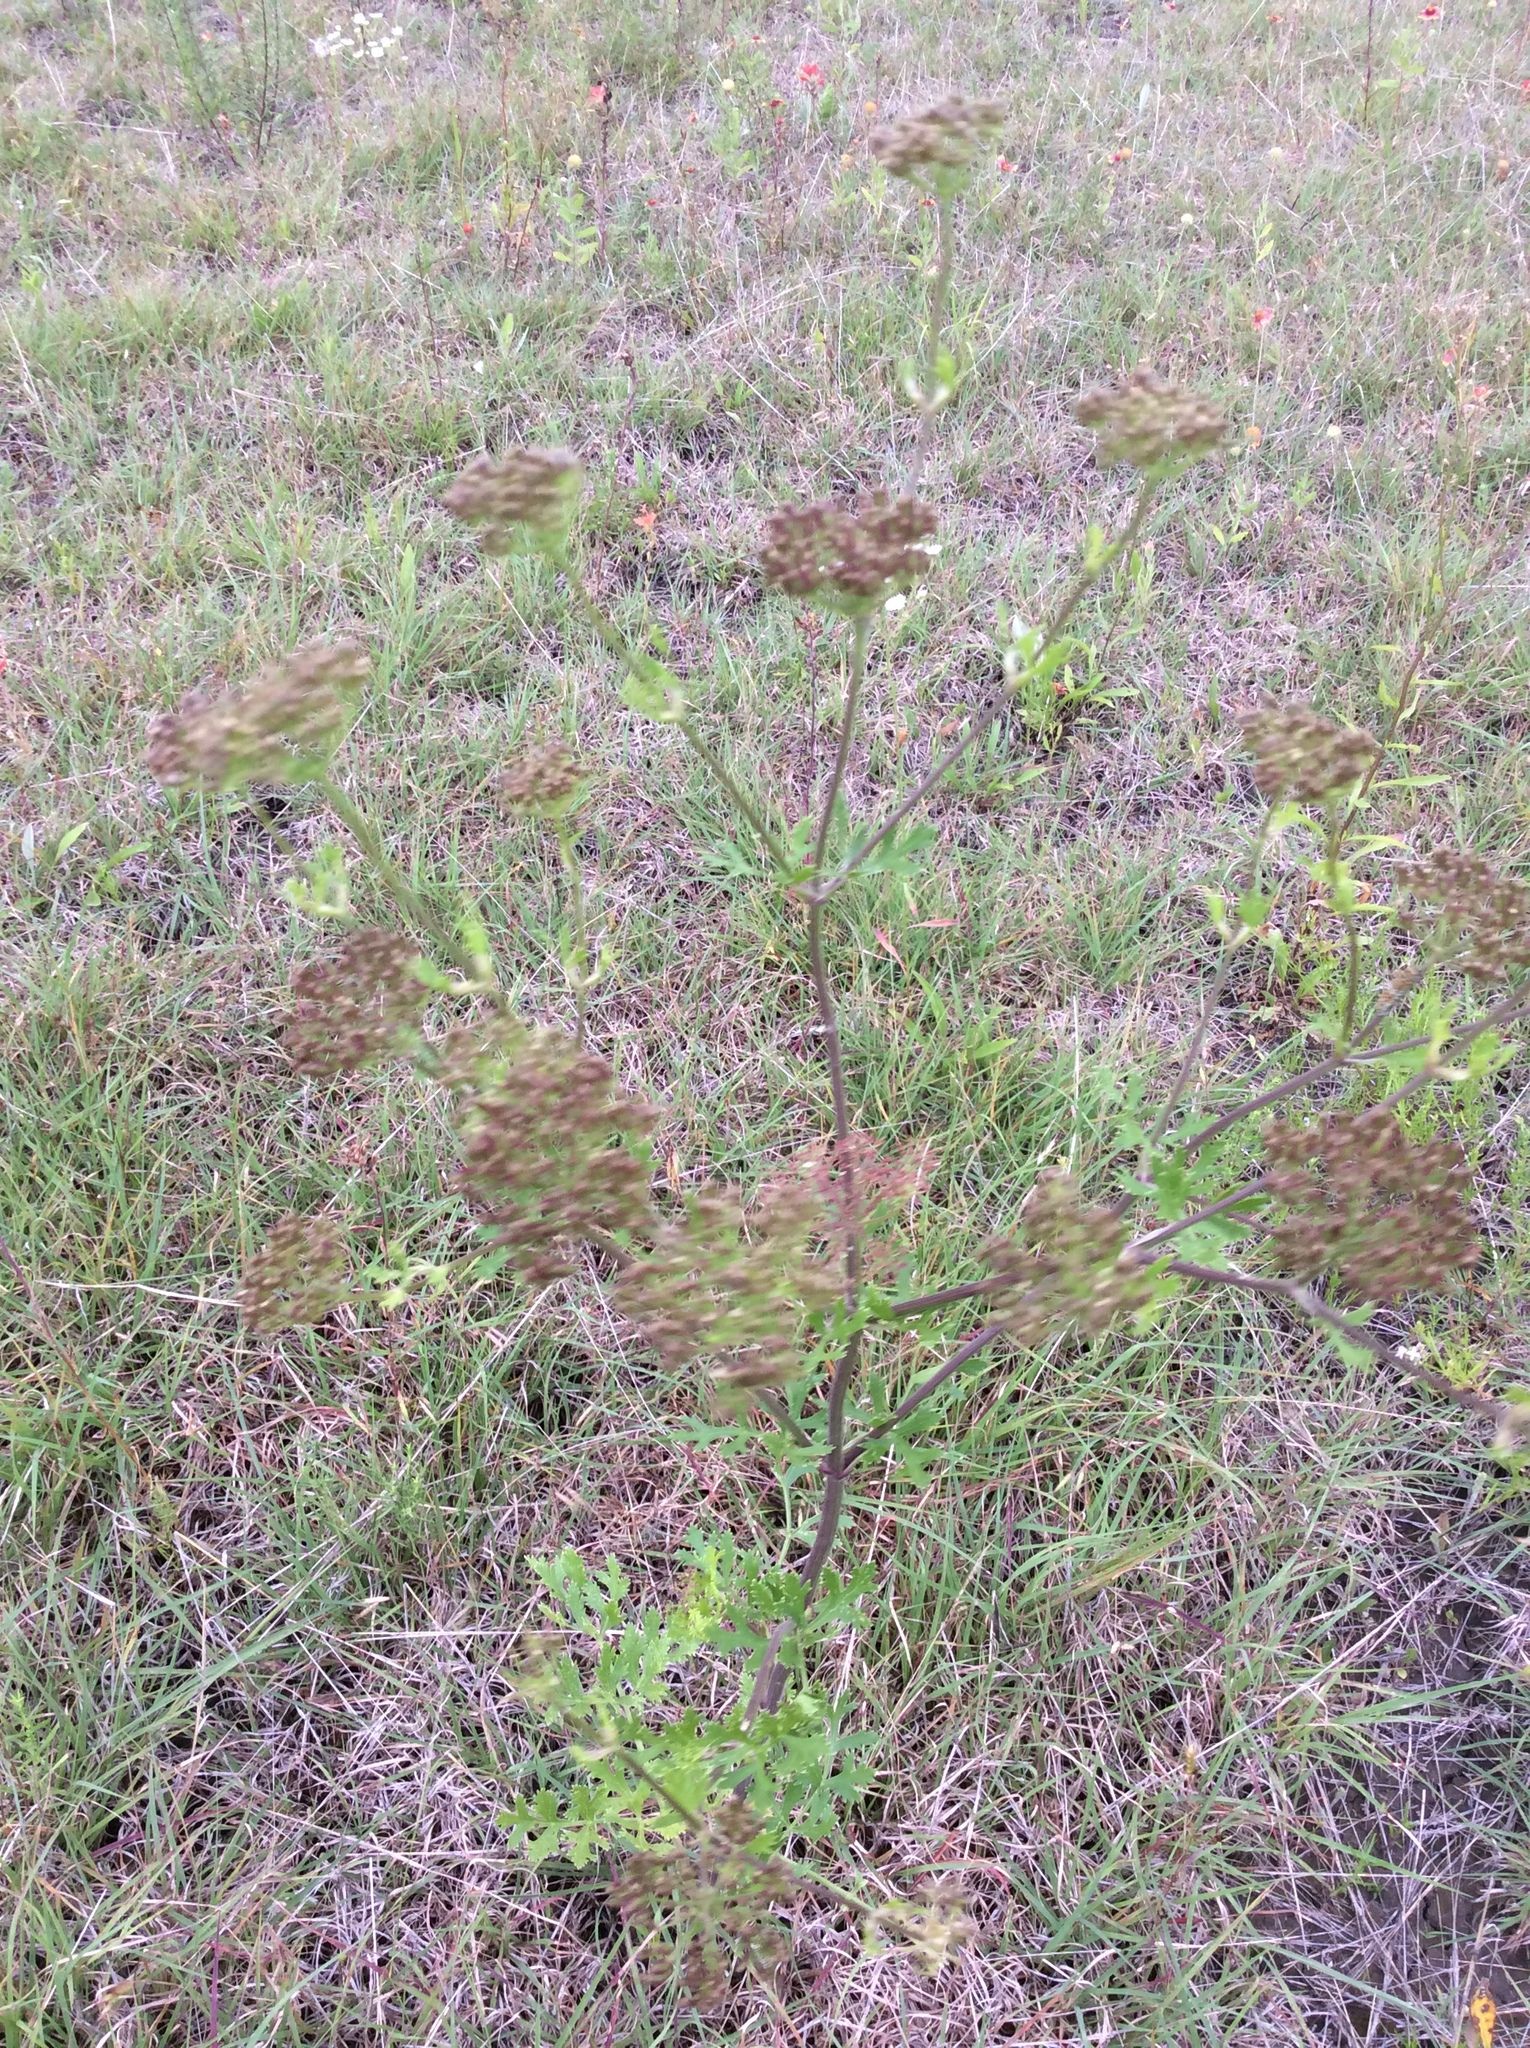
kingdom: Plantae
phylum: Tracheophyta
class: Magnoliopsida
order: Apiales
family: Apiaceae
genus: Polytaenia
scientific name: Polytaenia texana
